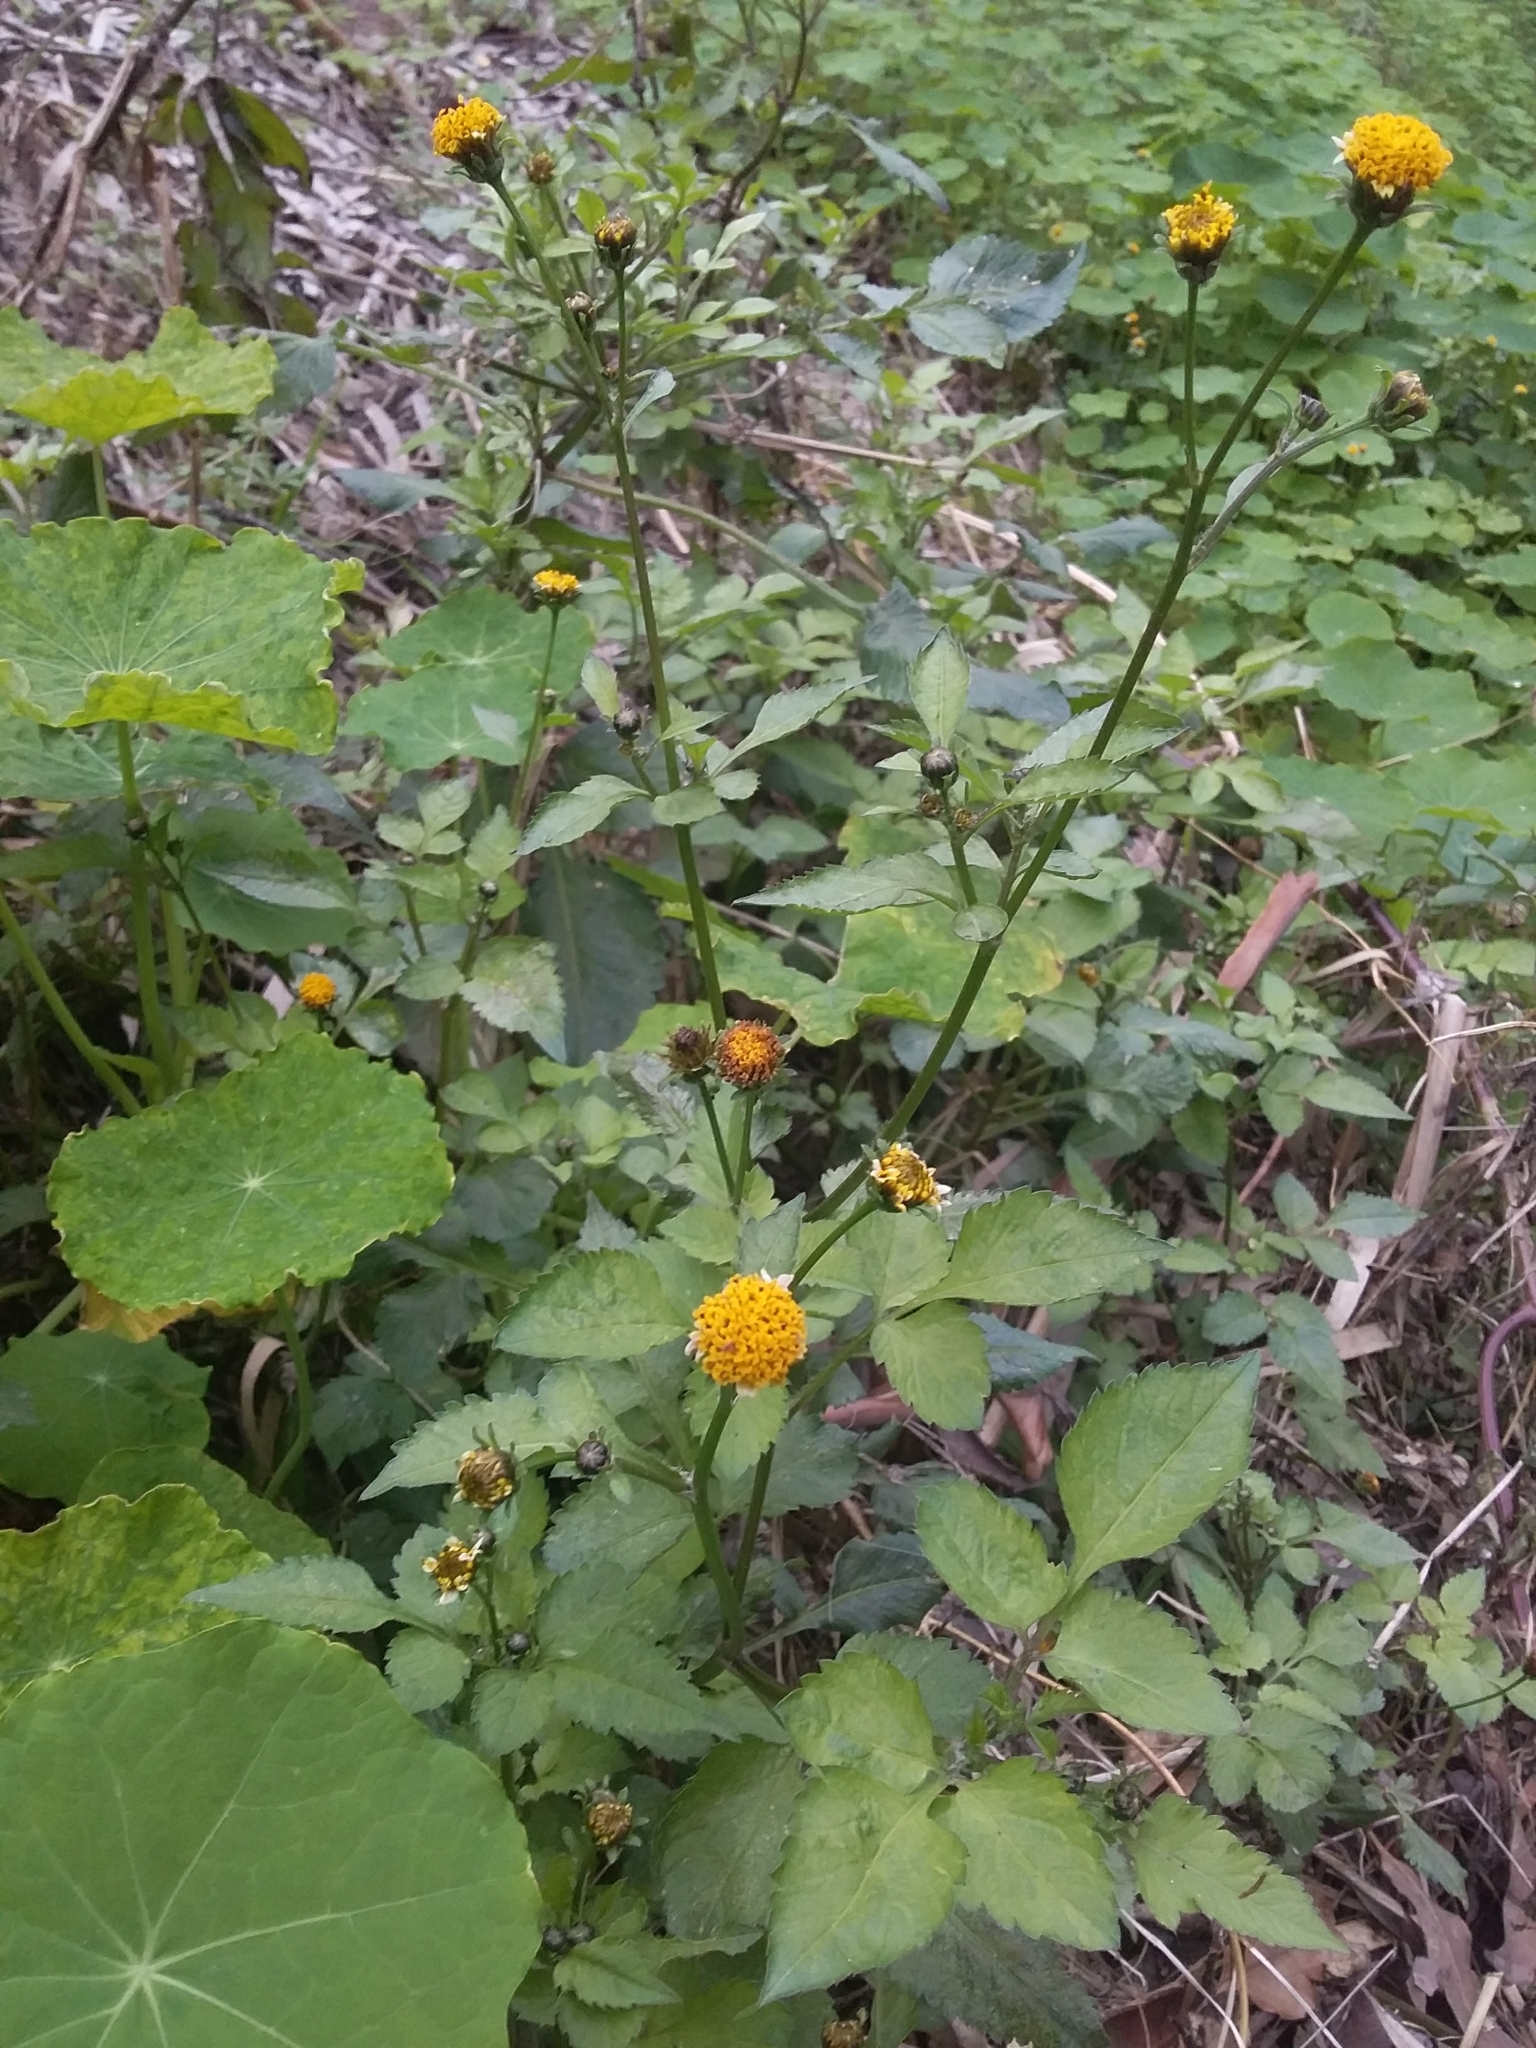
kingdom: Plantae
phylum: Tracheophyta
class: Magnoliopsida
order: Asterales
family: Asteraceae
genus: Bidens
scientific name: Bidens pilosa
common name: Black-jack
